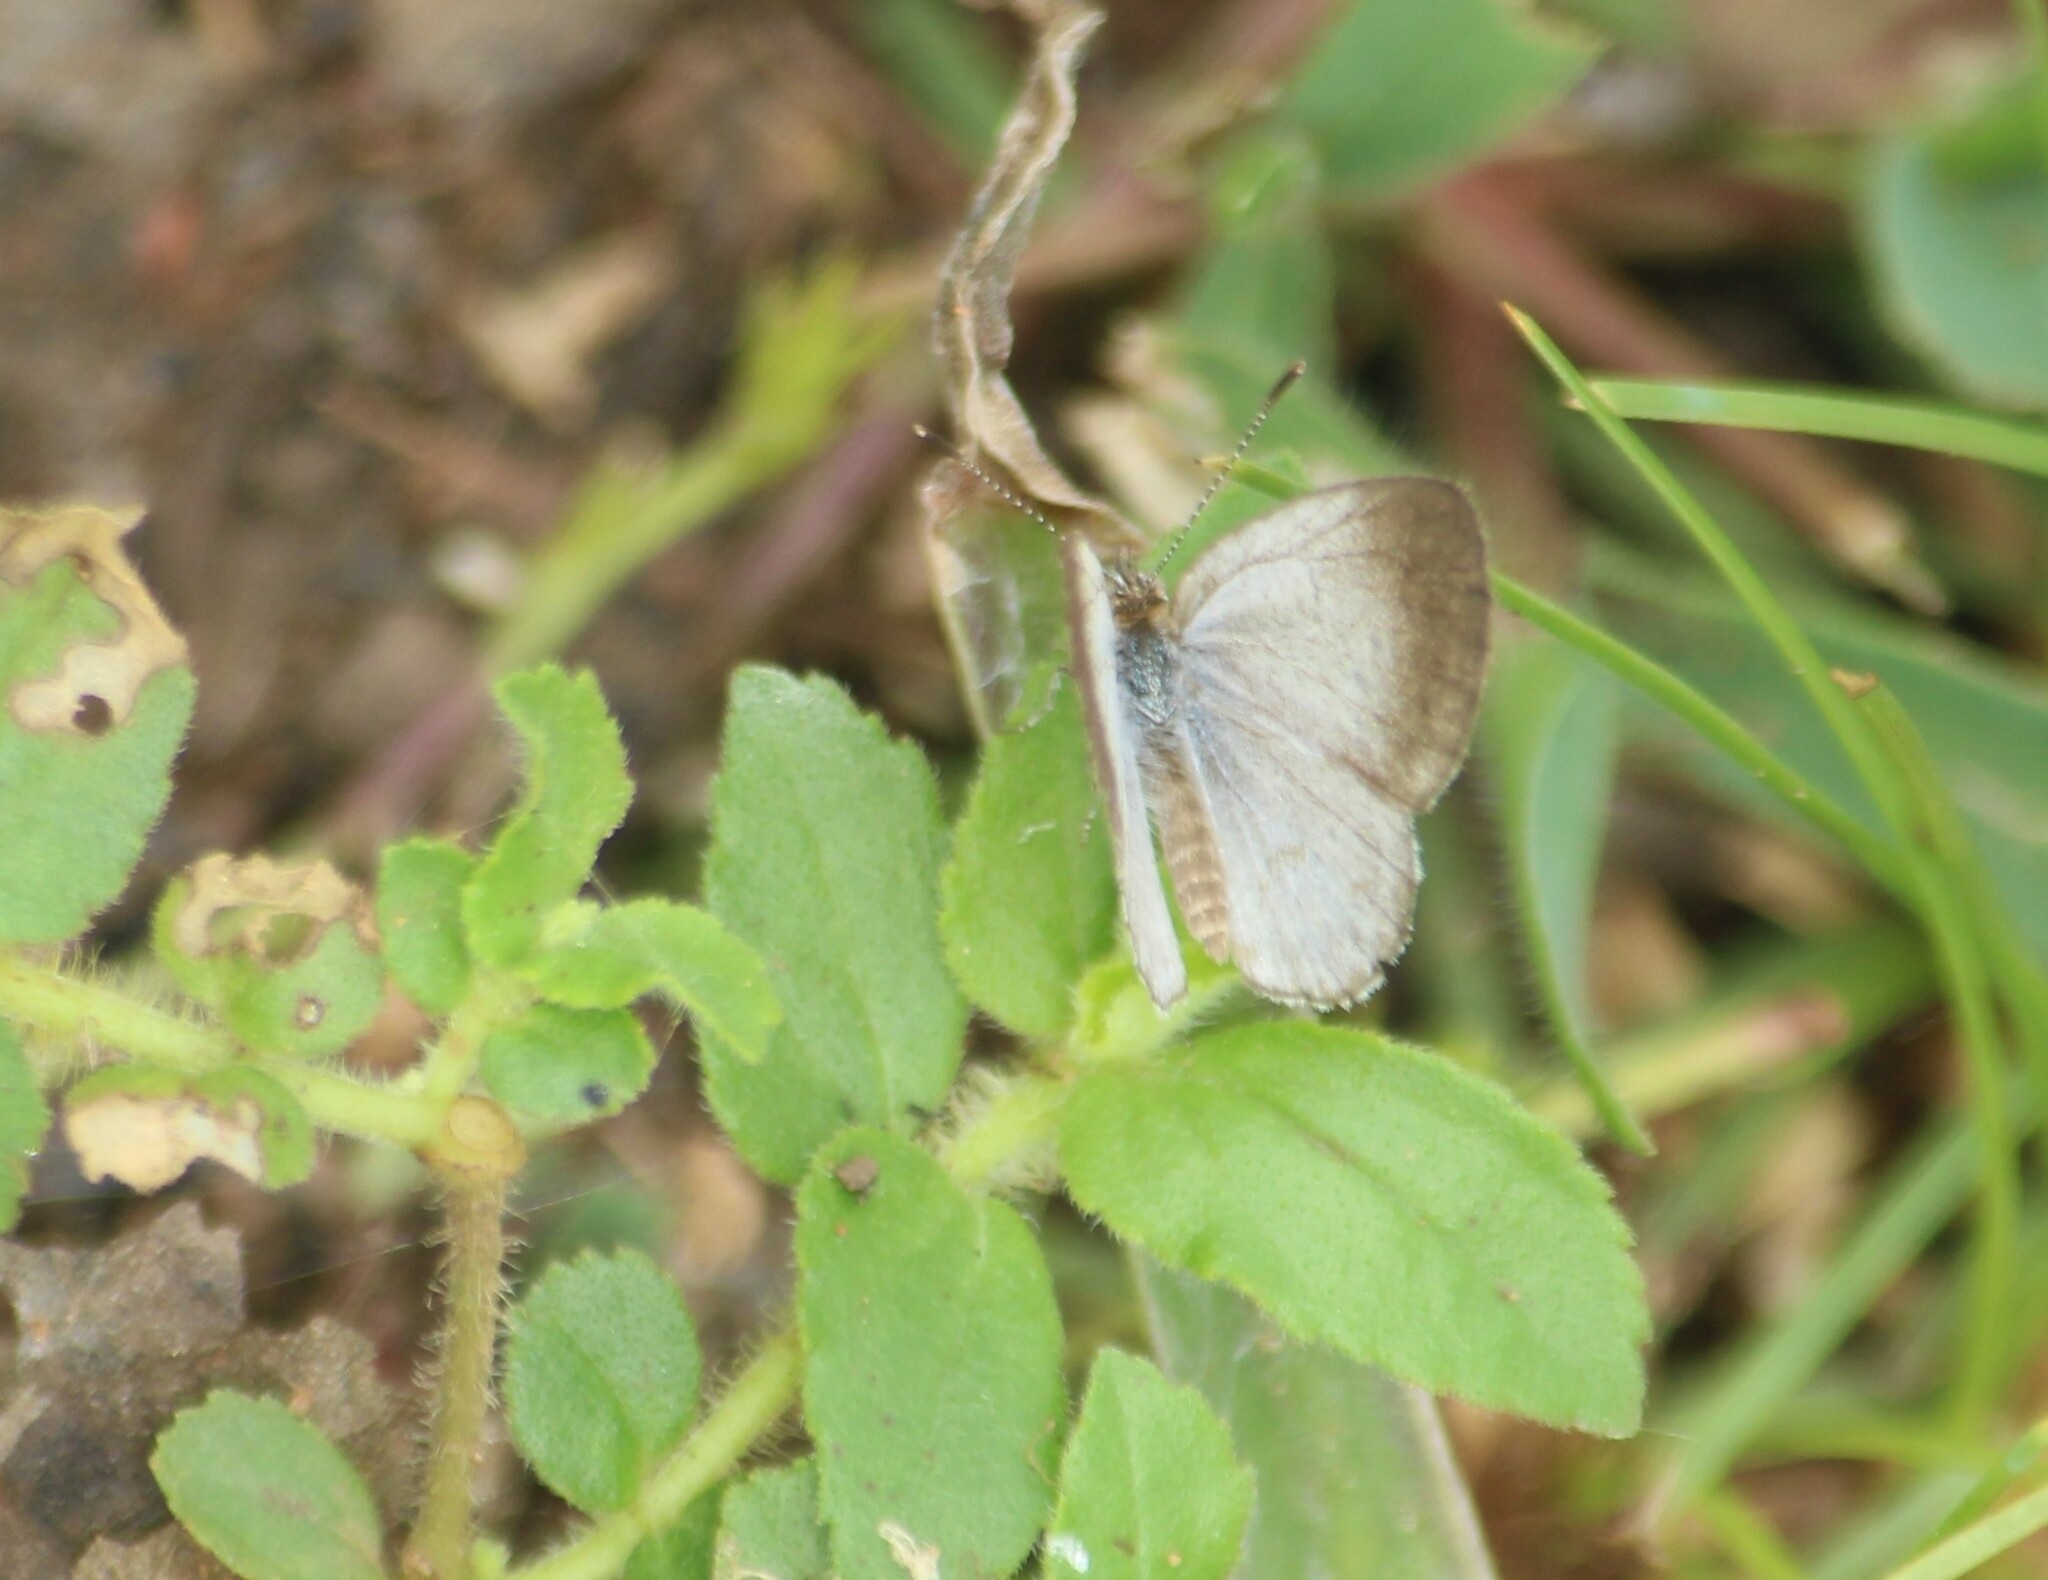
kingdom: Animalia
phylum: Arthropoda
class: Insecta
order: Lepidoptera
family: Lycaenidae
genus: Pseudozizeeria
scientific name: Pseudozizeeria maha
